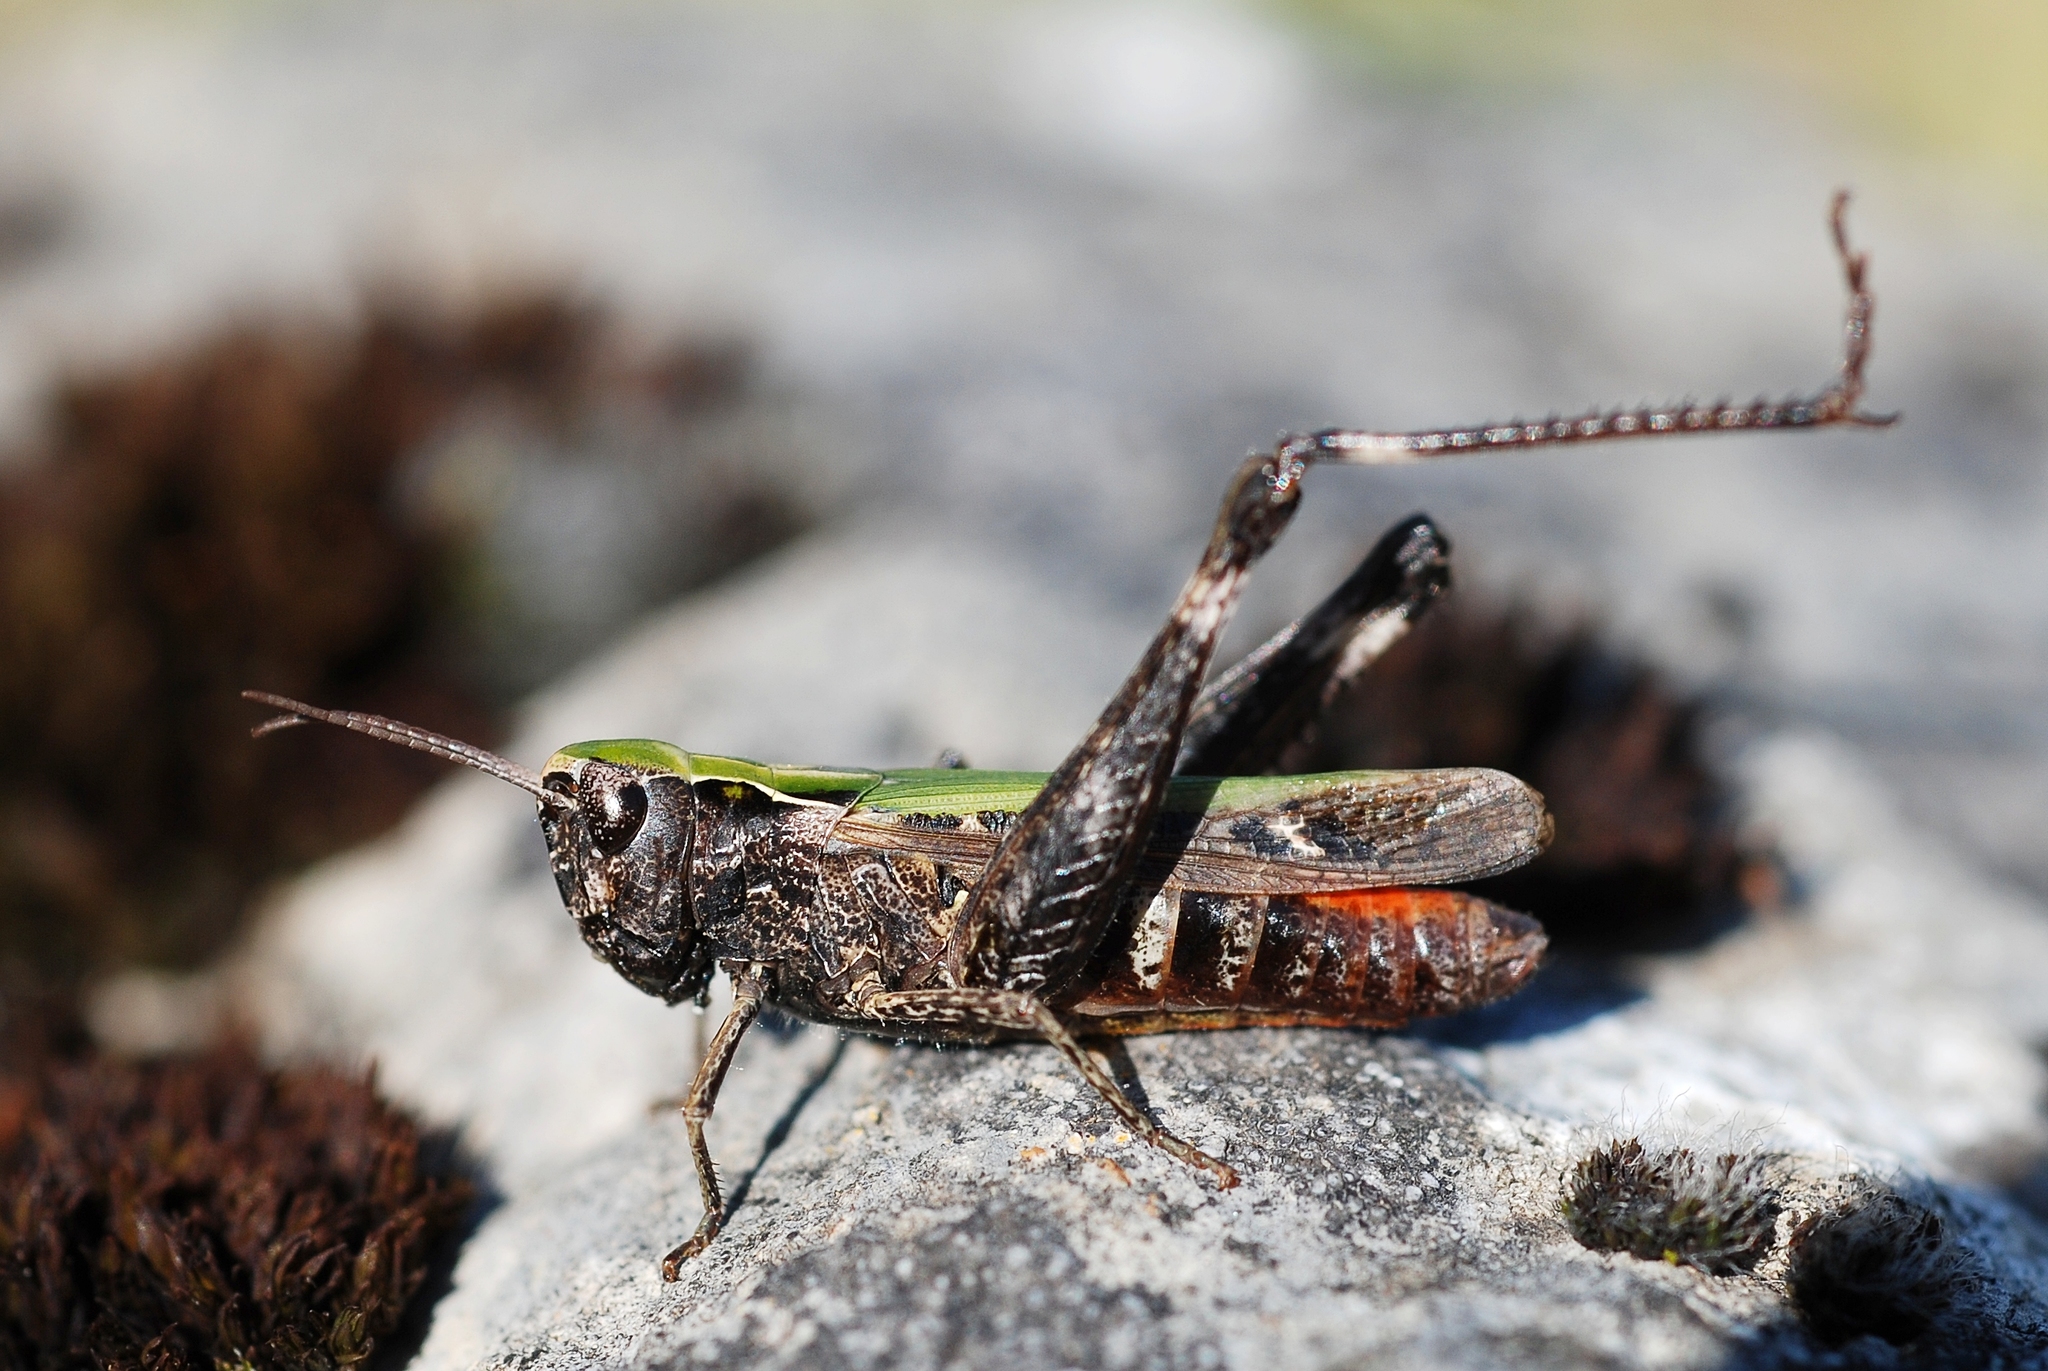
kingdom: Animalia
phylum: Arthropoda
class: Insecta
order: Orthoptera
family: Acrididae
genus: Omocestus
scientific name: Omocestus rufipes
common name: Woodland grasshopper
